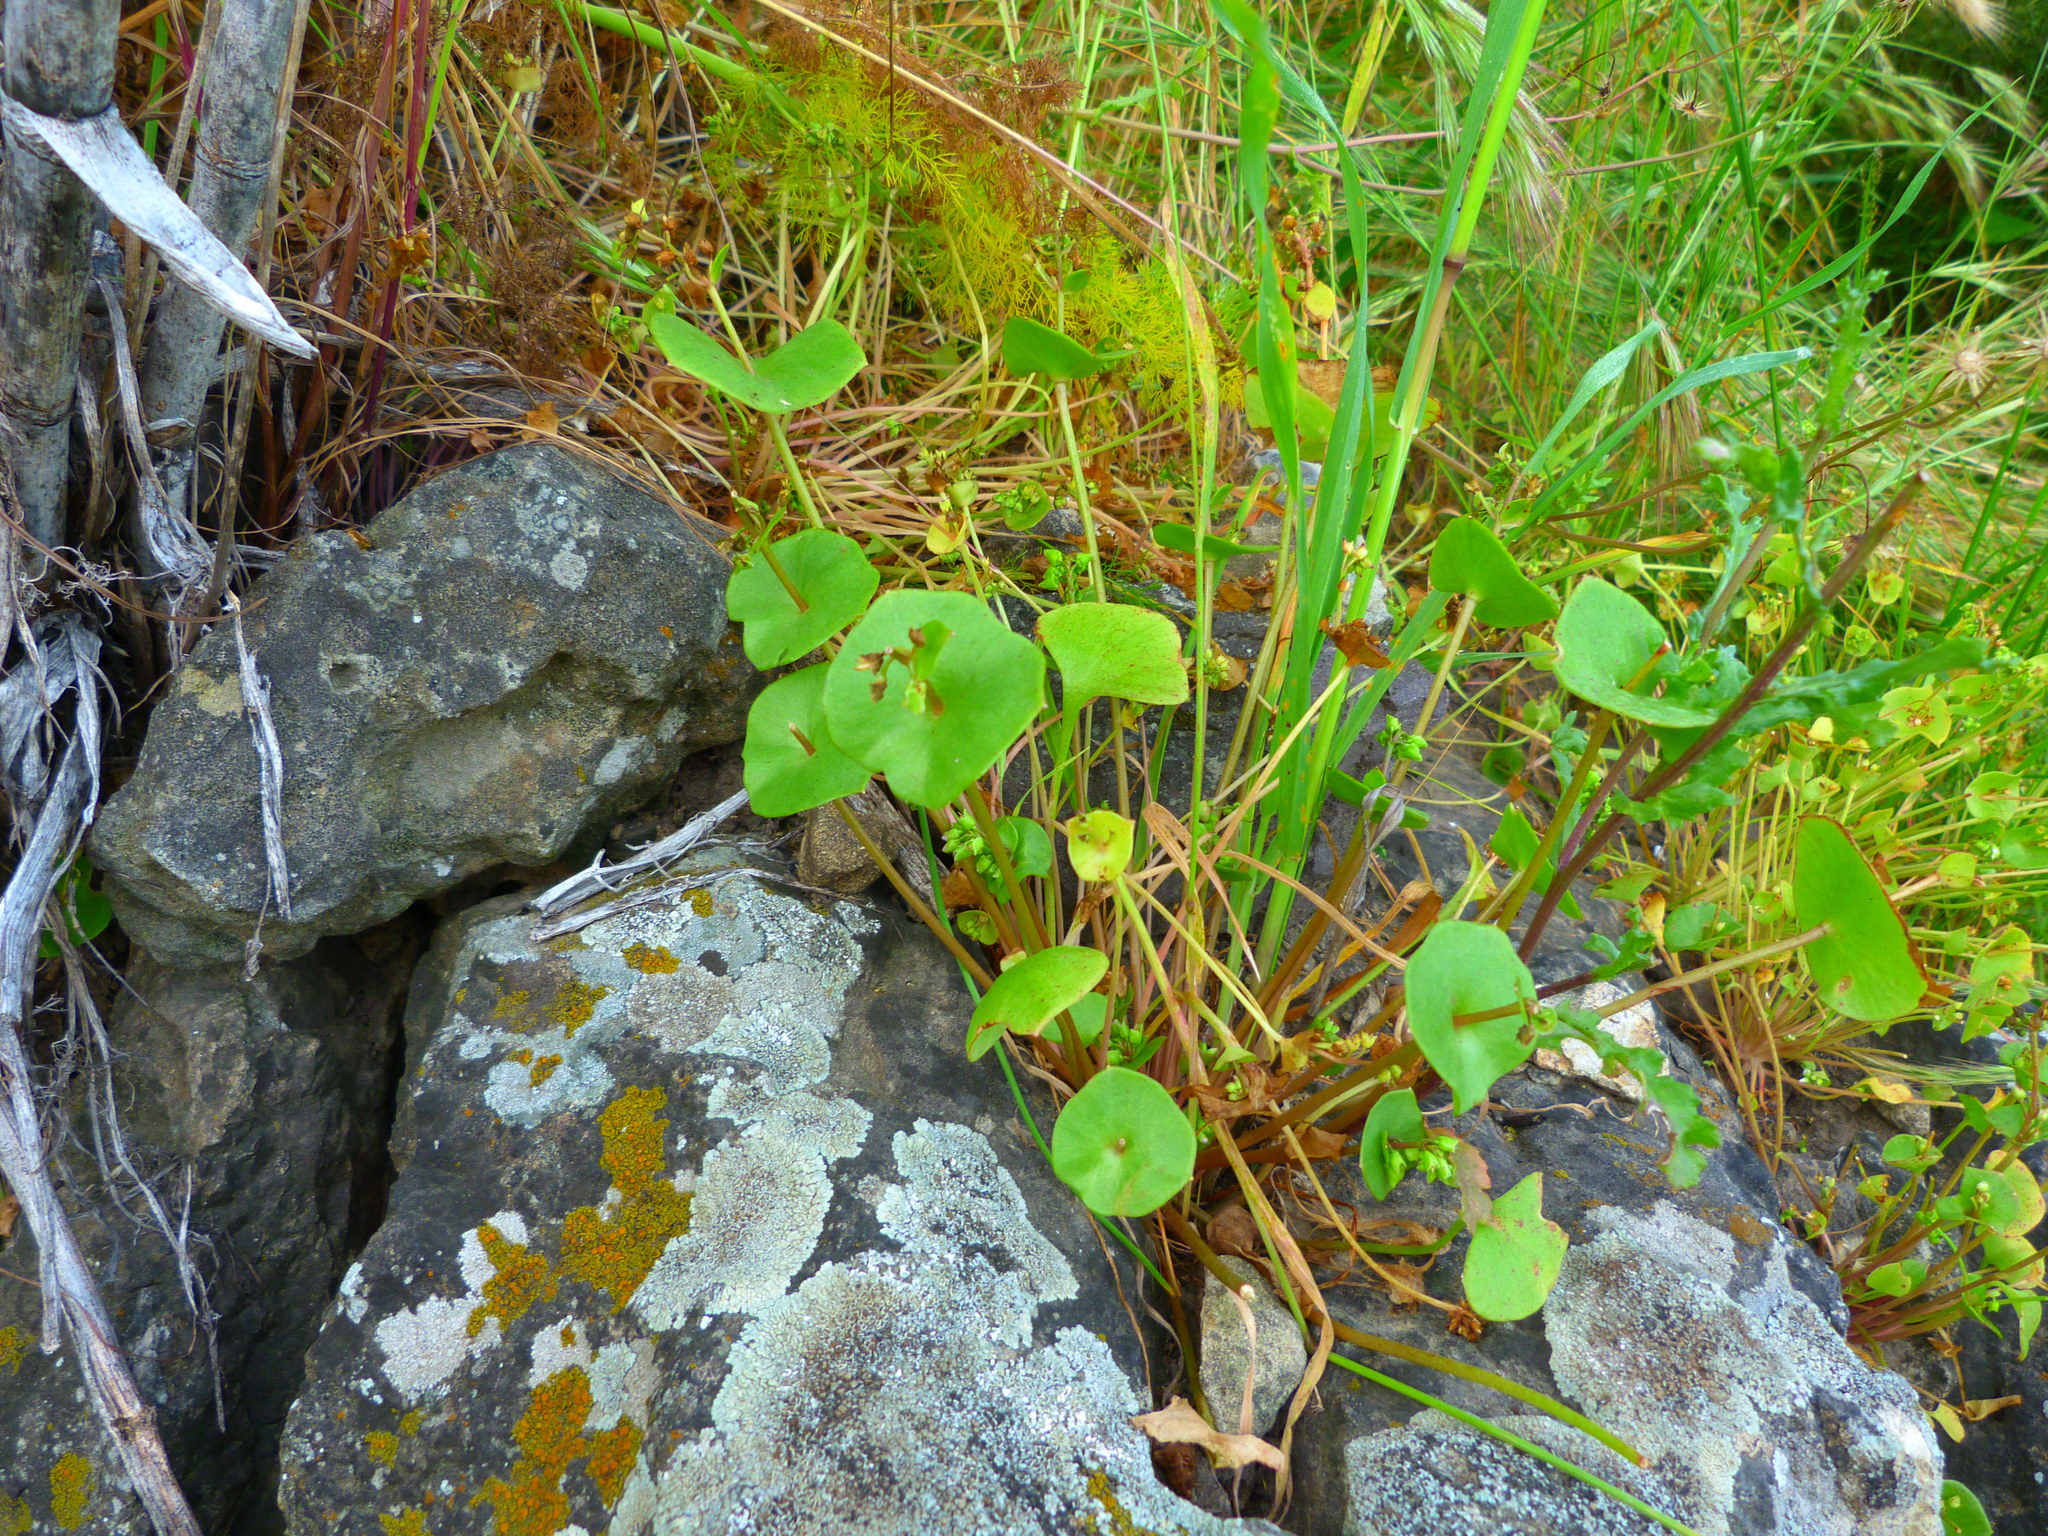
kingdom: Plantae
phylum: Tracheophyta
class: Magnoliopsida
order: Caryophyllales
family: Montiaceae
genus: Claytonia
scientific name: Claytonia perfoliata
